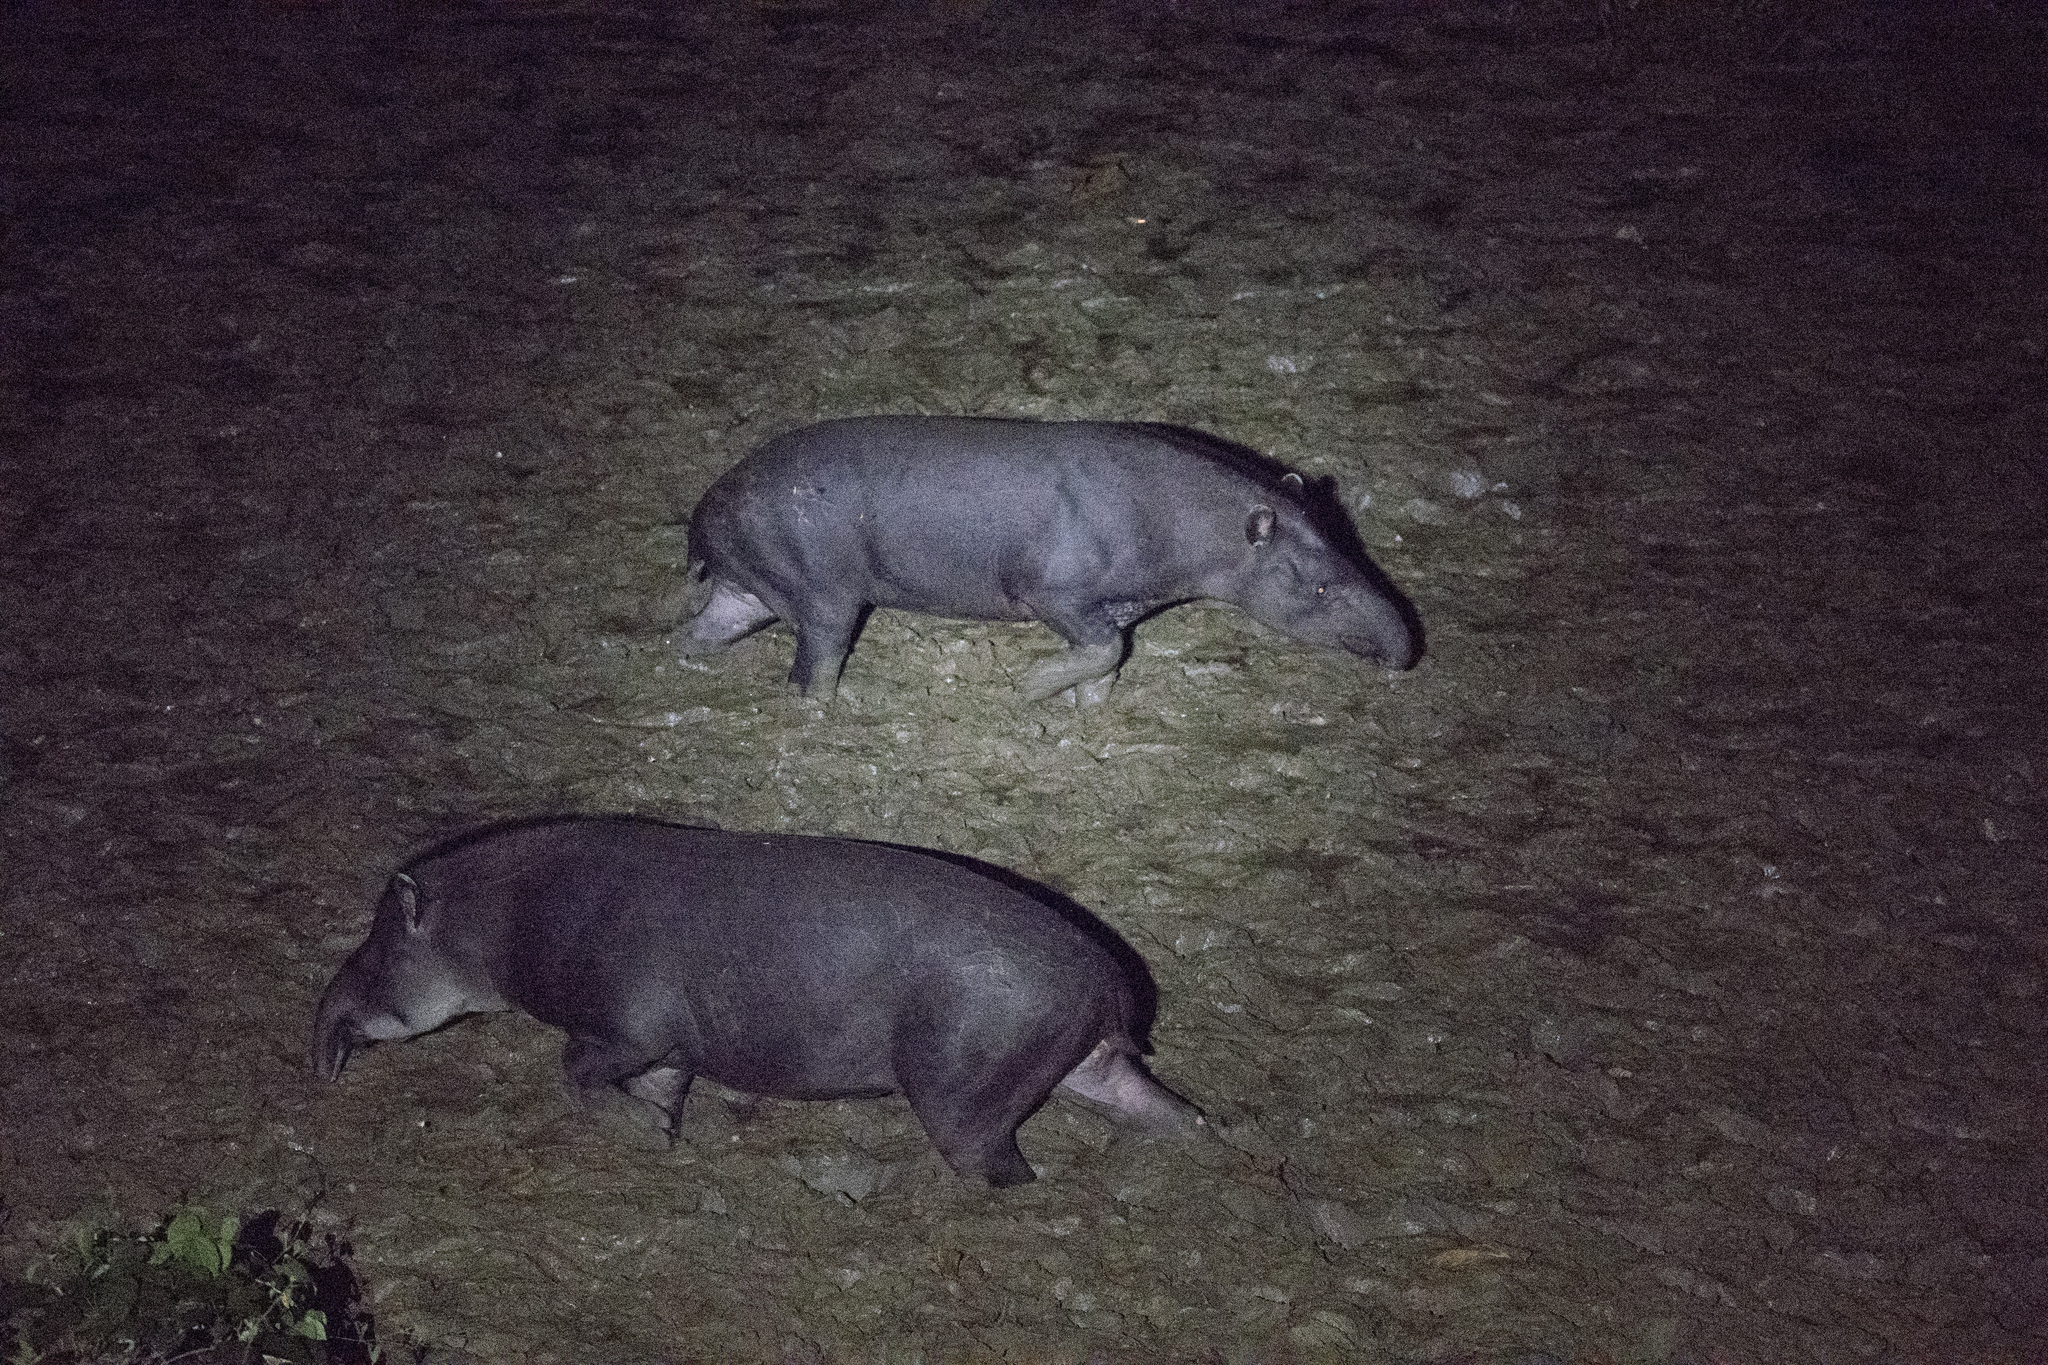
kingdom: Animalia
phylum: Chordata
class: Mammalia
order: Perissodactyla
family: Tapiridae
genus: Tapirus
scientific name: Tapirus terrestris
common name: Brazilian tapir
